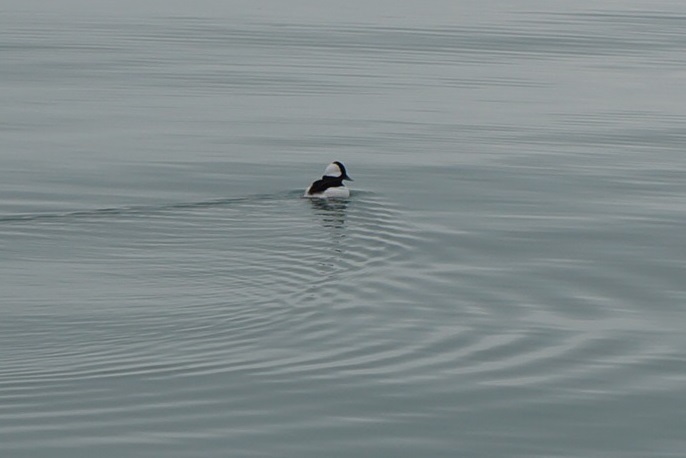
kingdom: Animalia
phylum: Chordata
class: Aves
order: Anseriformes
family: Anatidae
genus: Bucephala
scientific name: Bucephala albeola
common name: Bufflehead
